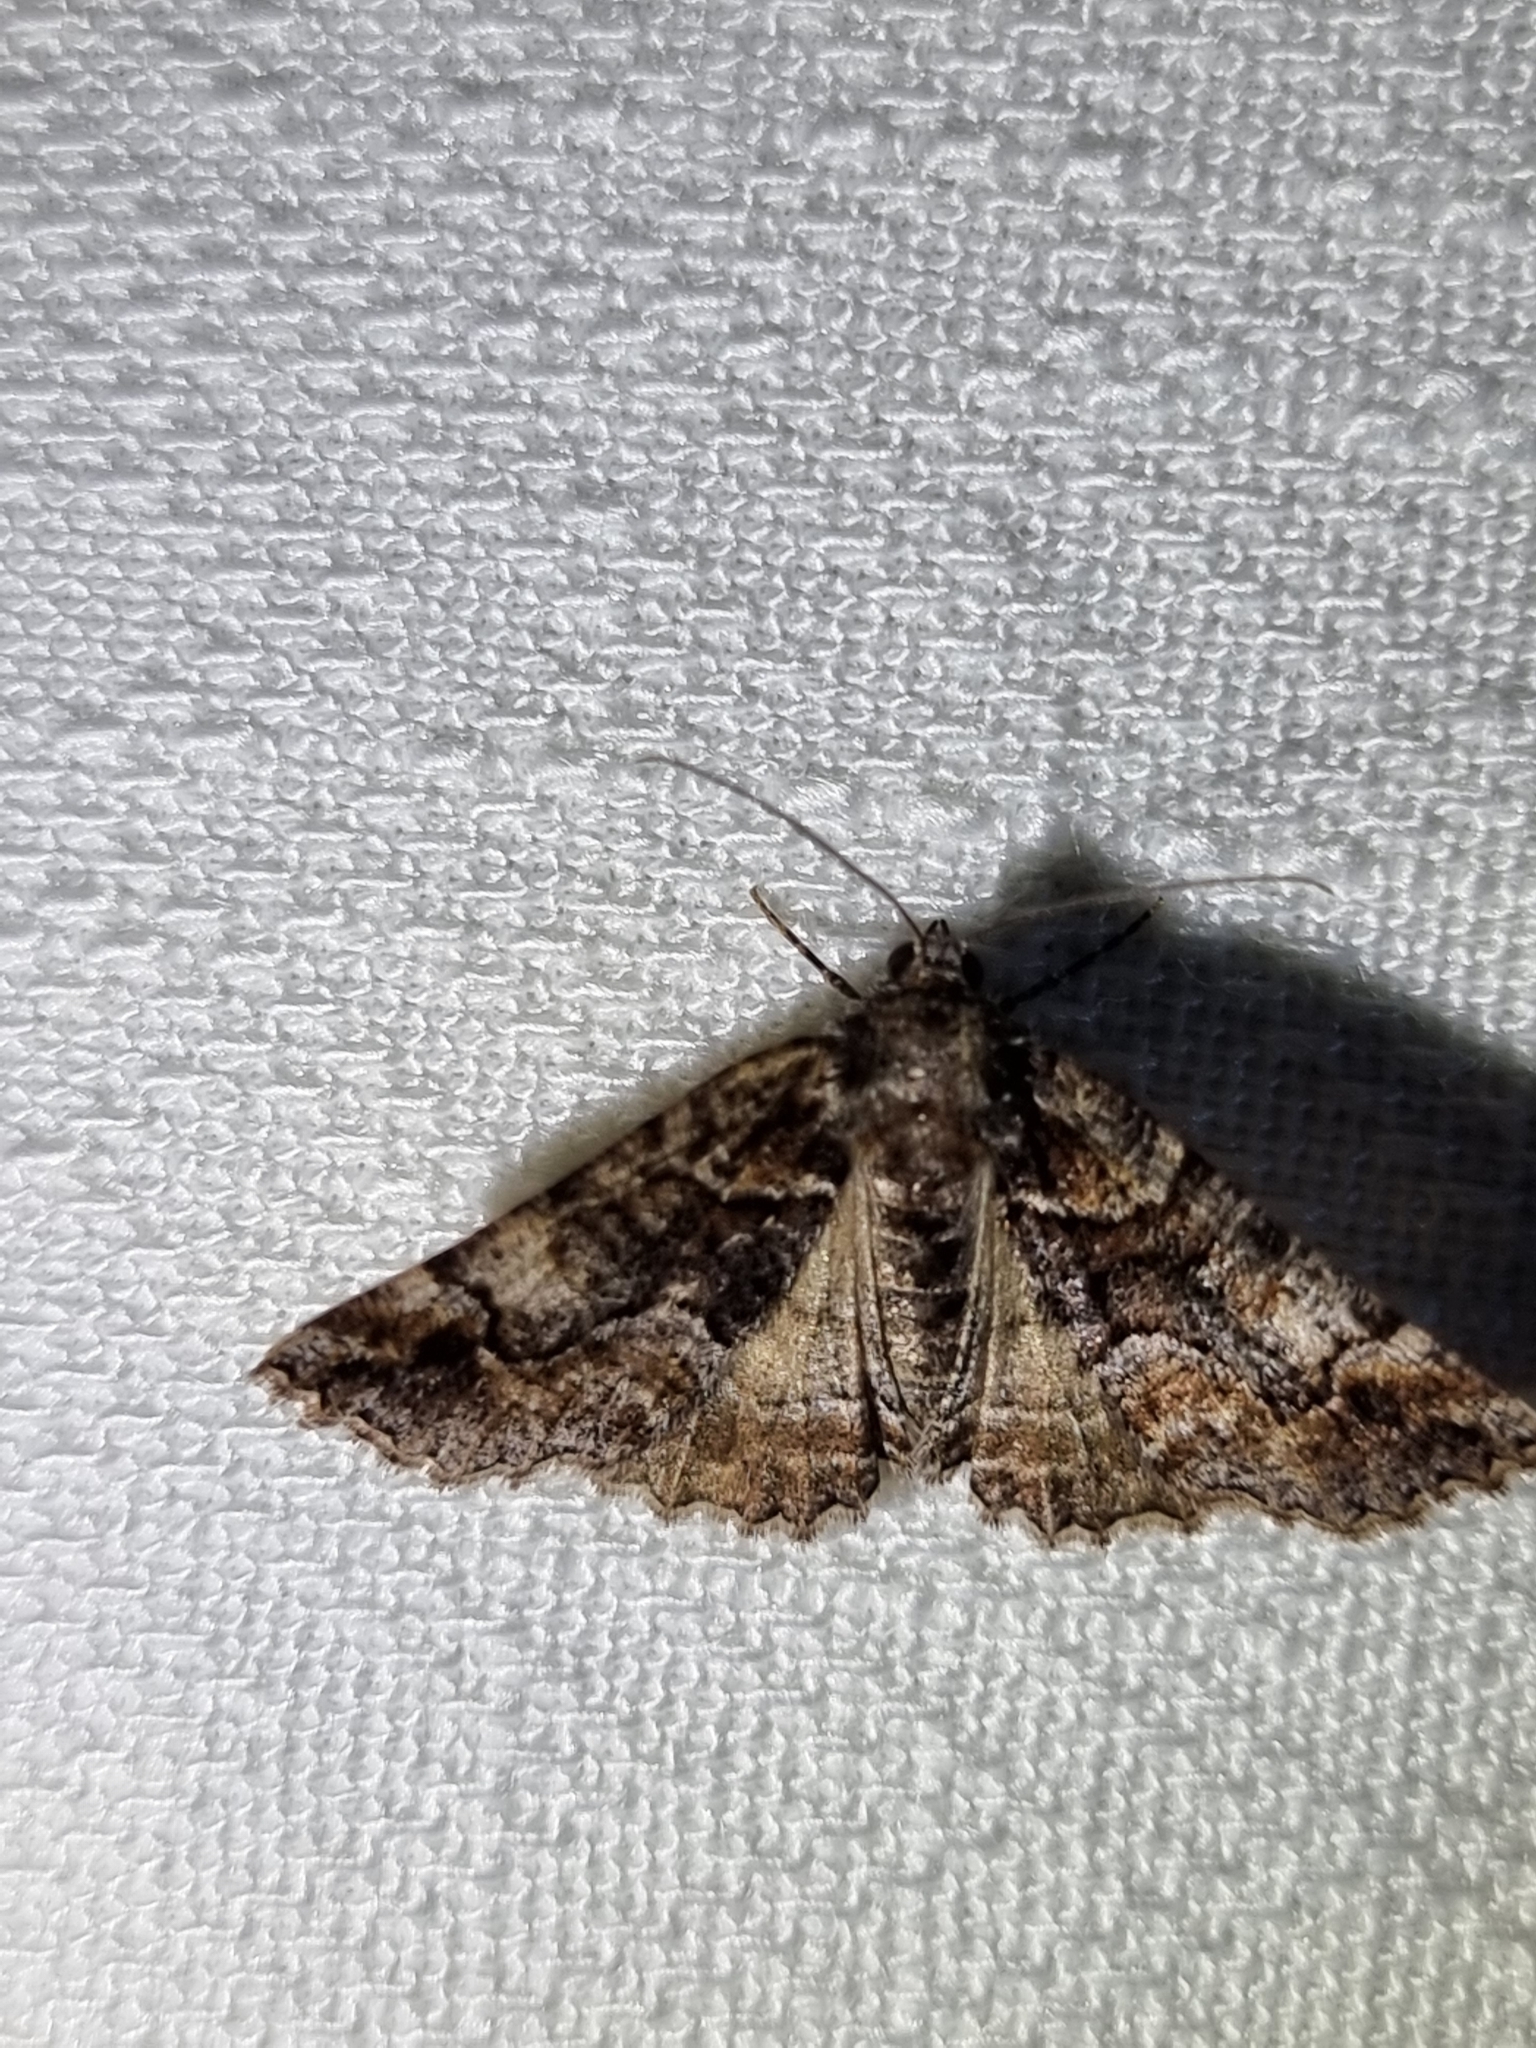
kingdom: Animalia
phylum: Arthropoda
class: Insecta
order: Lepidoptera
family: Geometridae
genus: Gastrina
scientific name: Gastrina cristaria
